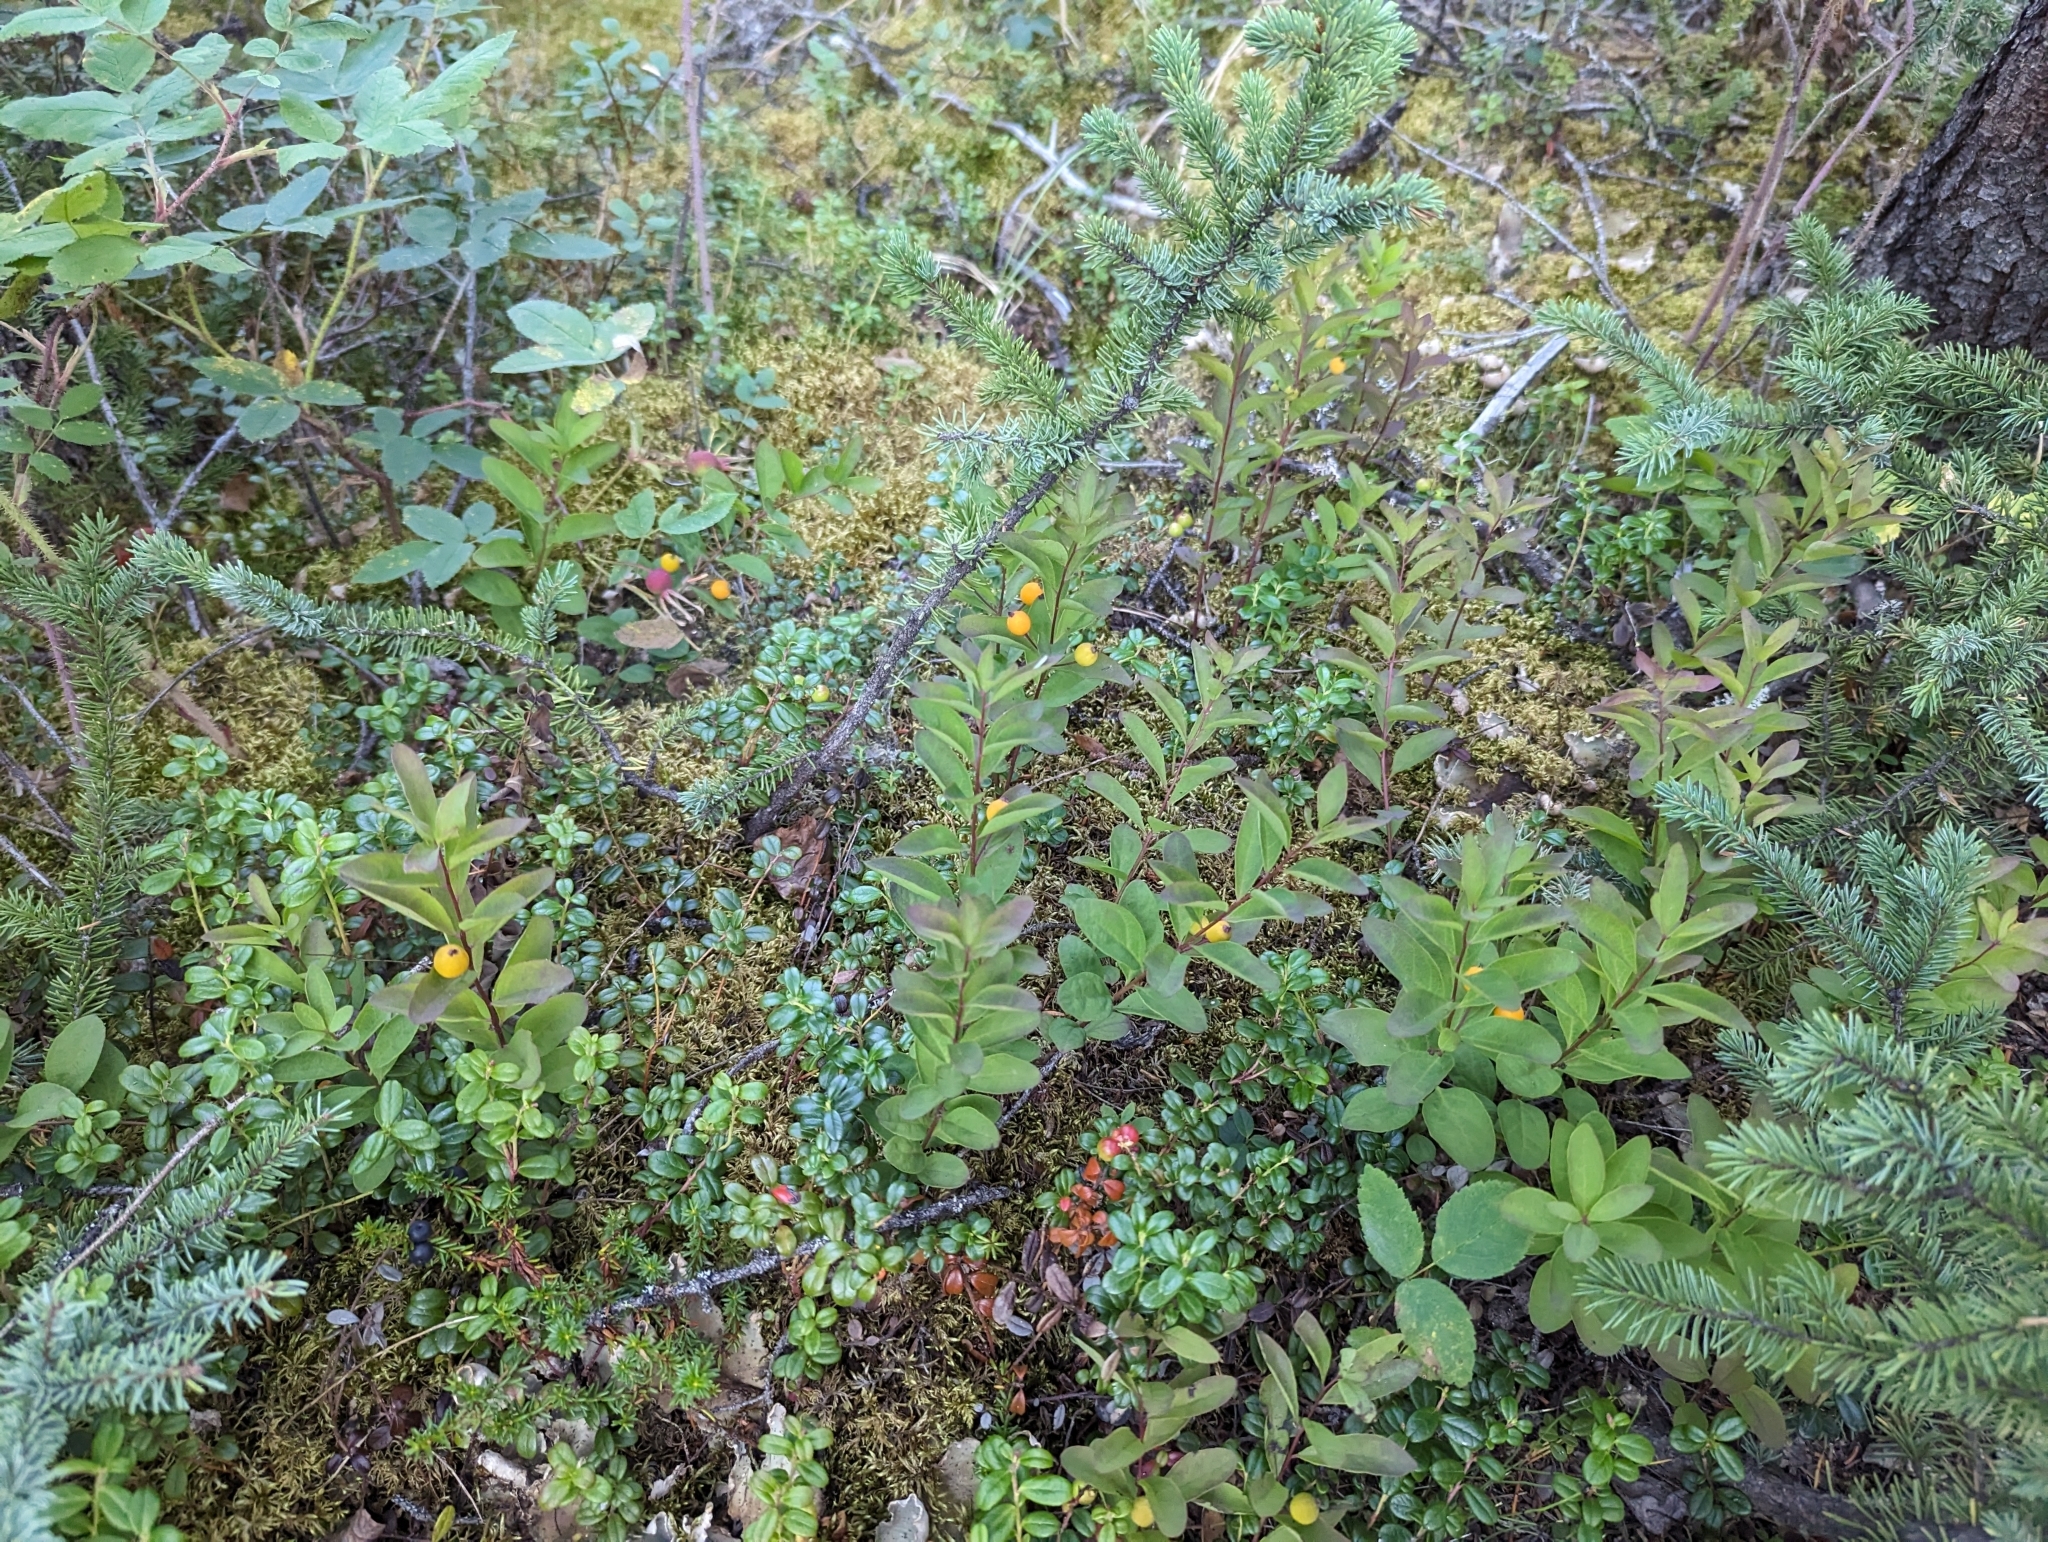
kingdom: Plantae
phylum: Tracheophyta
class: Magnoliopsida
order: Santalales
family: Comandraceae
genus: Geocaulon
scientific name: Geocaulon lividum
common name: Earthberry
